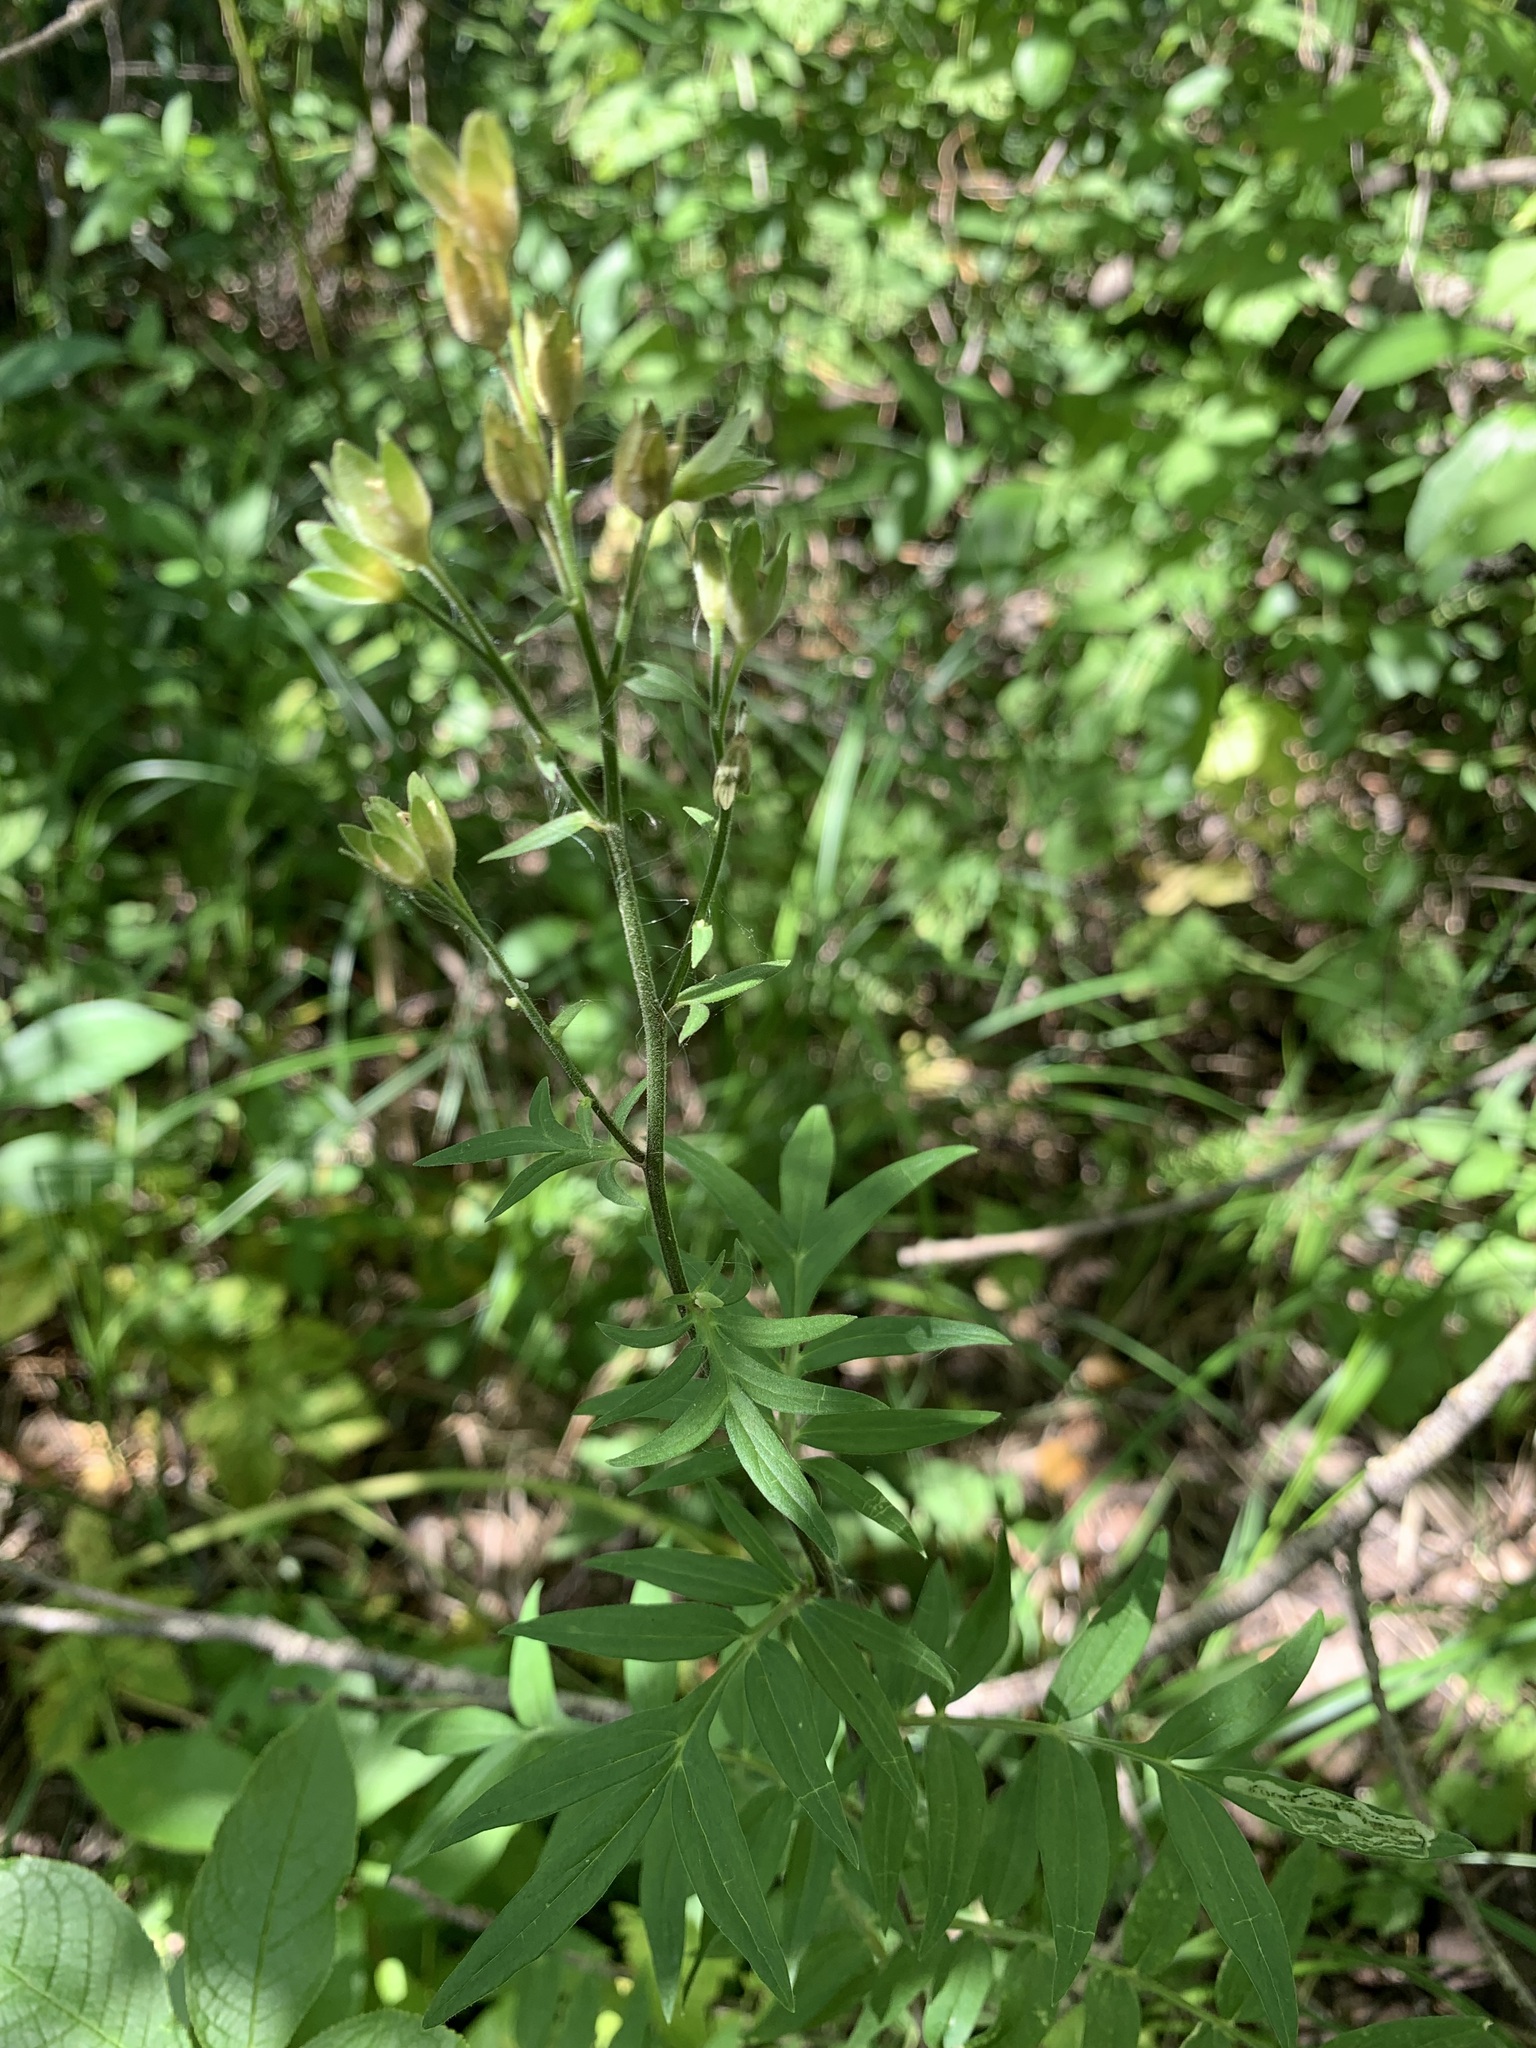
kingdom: Plantae
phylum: Tracheophyta
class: Magnoliopsida
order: Ericales
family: Polemoniaceae
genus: Polemonium
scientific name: Polemonium caeruleum
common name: Jacob's-ladder
